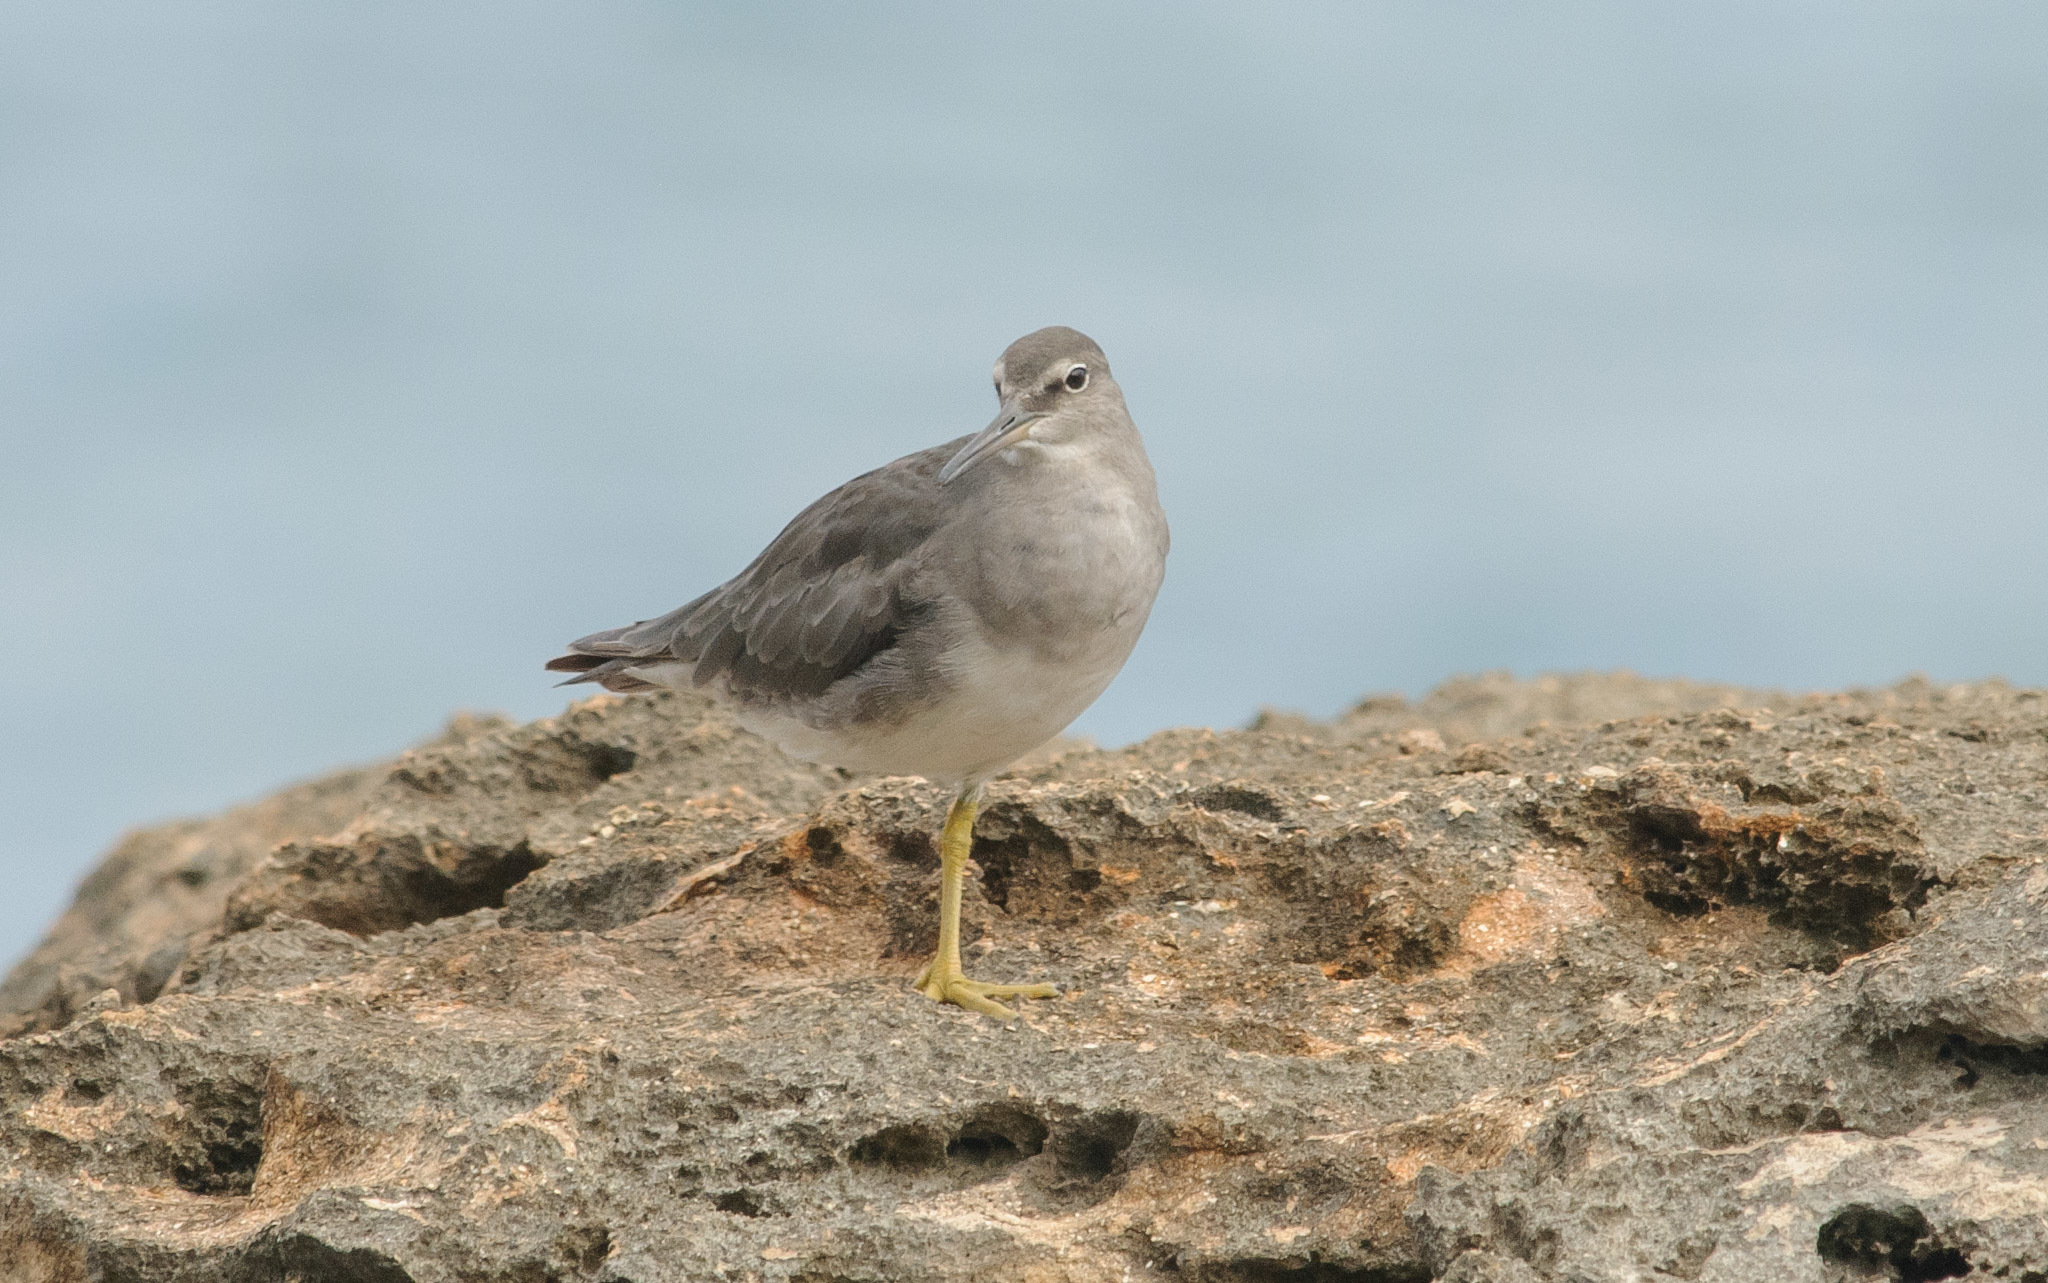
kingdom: Animalia
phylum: Chordata
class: Aves
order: Charadriiformes
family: Scolopacidae
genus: Tringa
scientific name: Tringa incana
